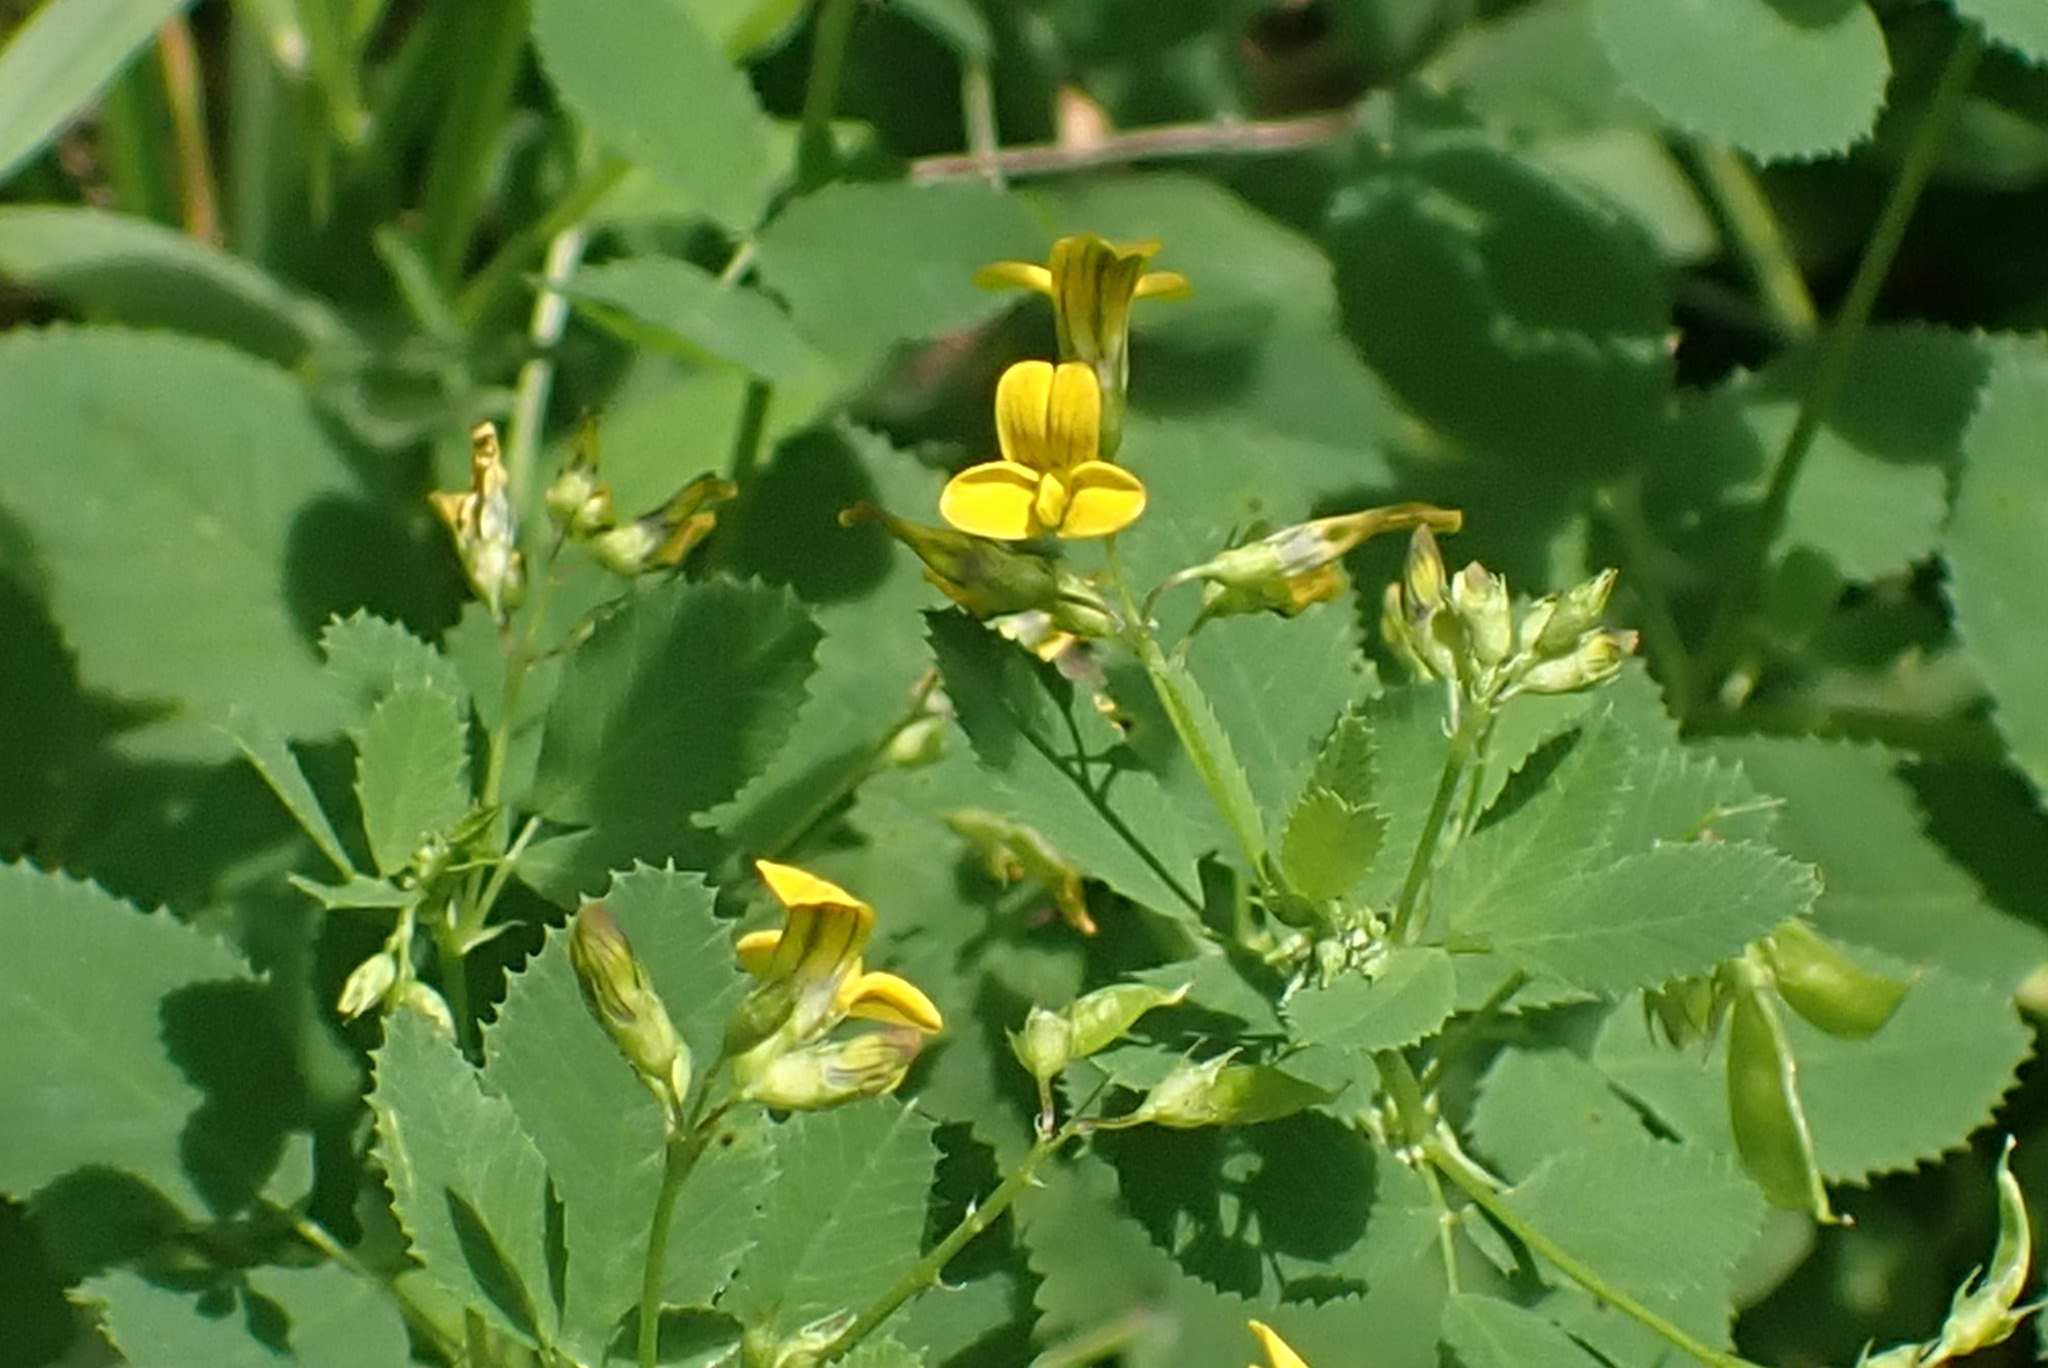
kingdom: Plantae
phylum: Tracheophyta
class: Magnoliopsida
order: Fabales
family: Fabaceae
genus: Medicago
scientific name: Medicago platycarpos
